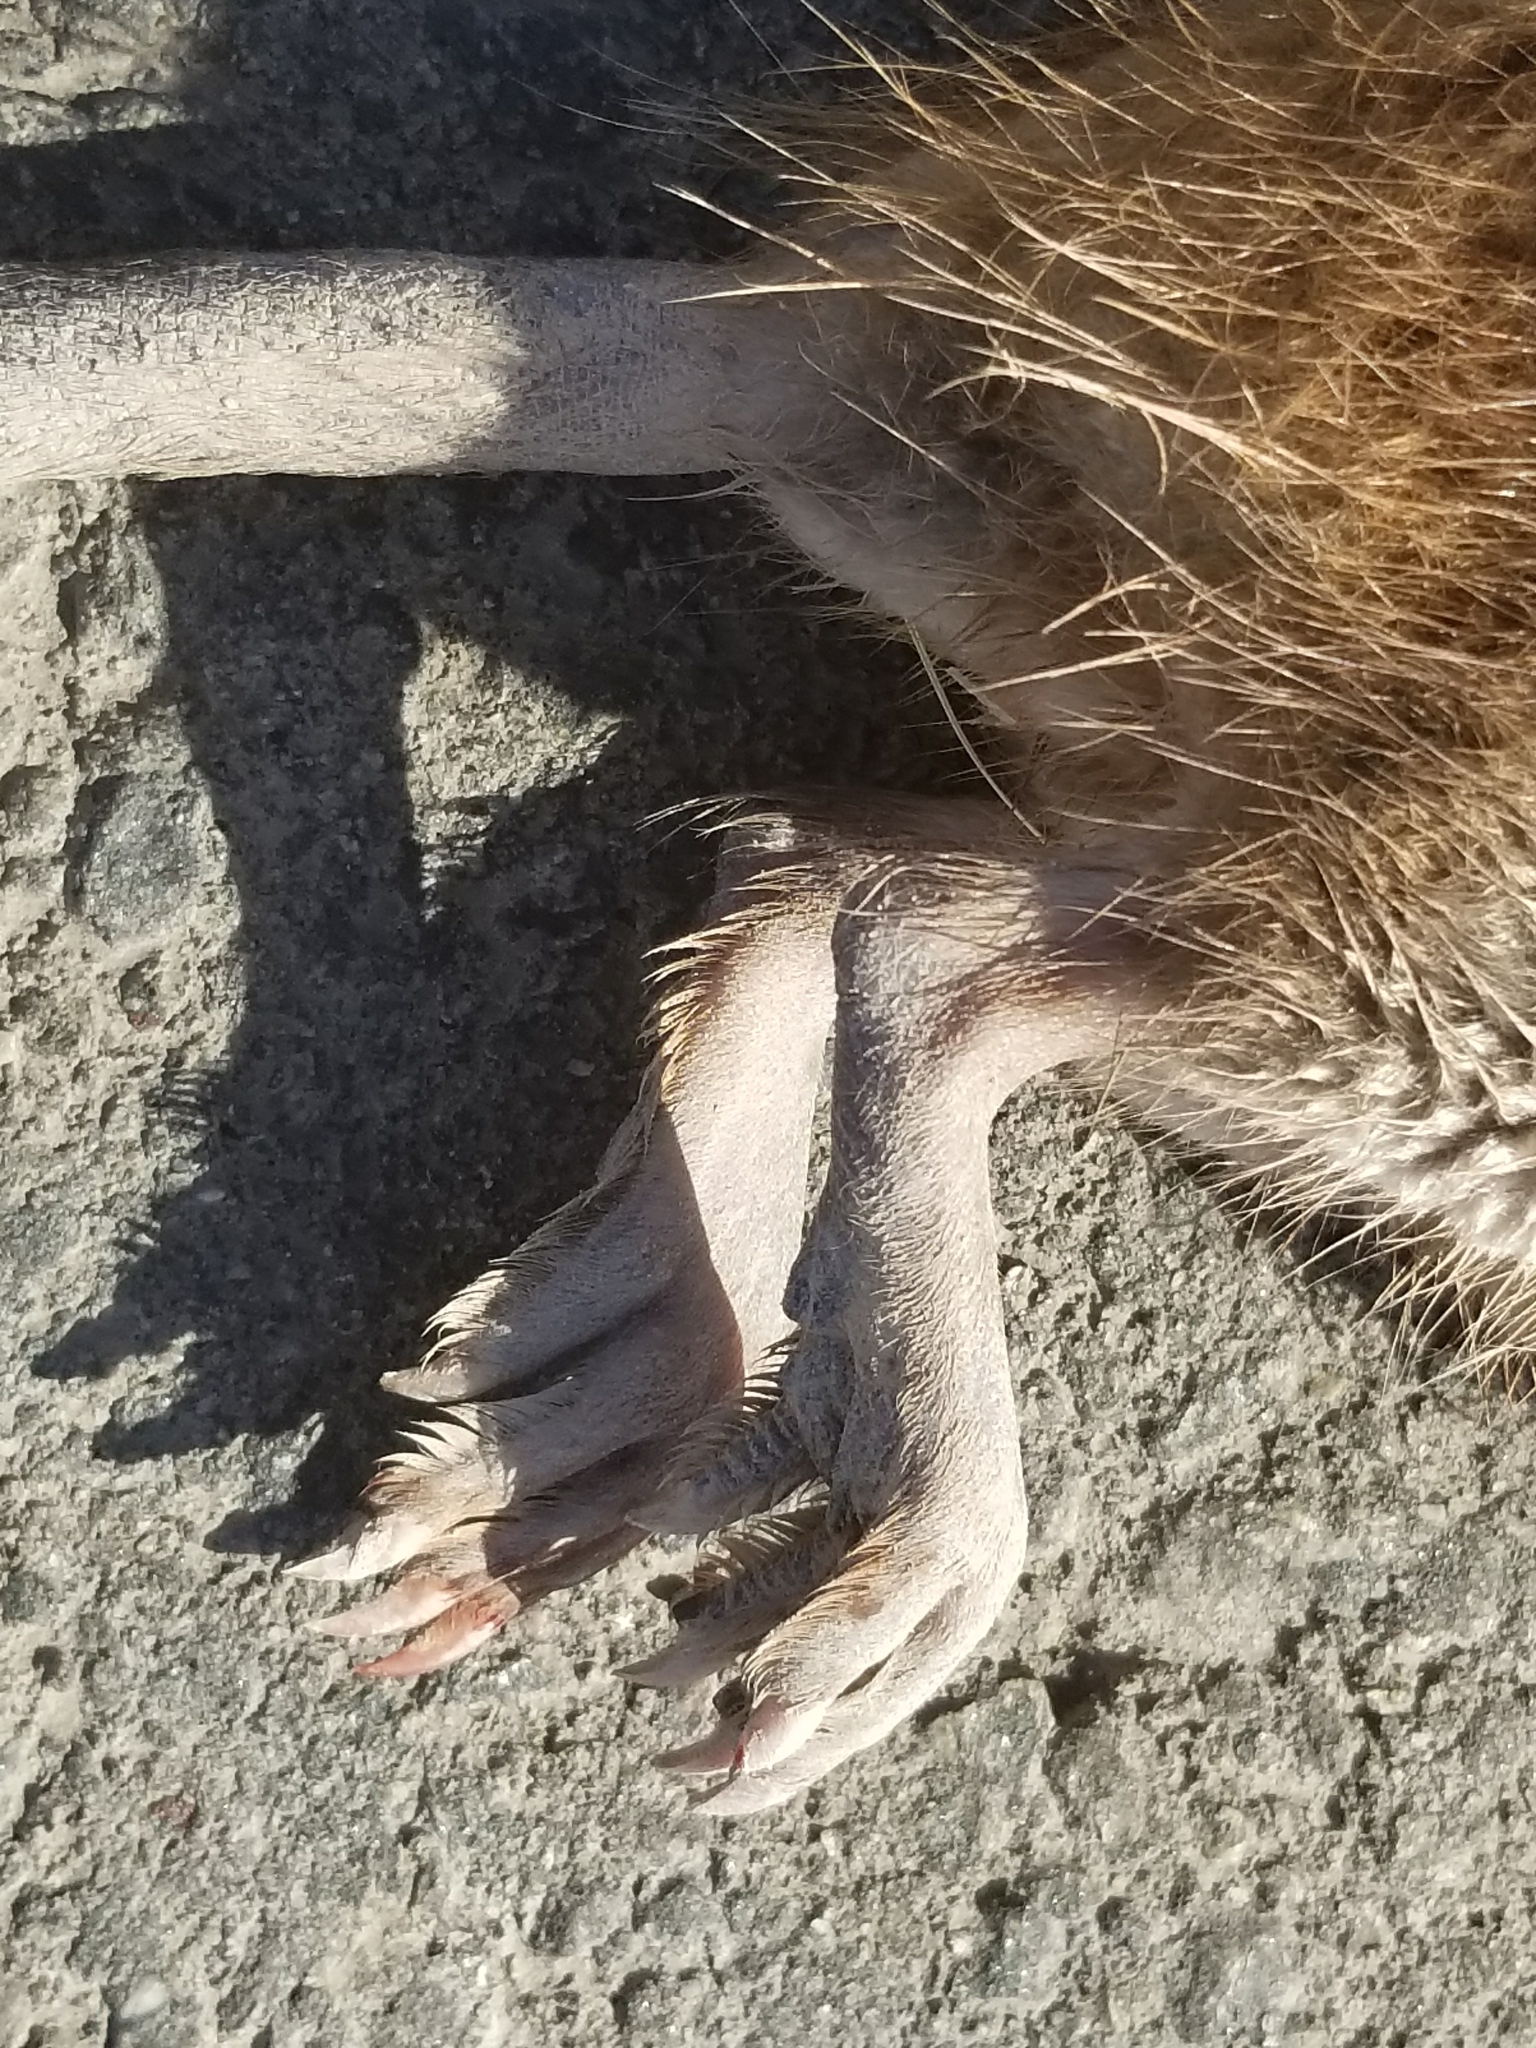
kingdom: Animalia
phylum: Chordata
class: Mammalia
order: Rodentia
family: Cricetidae
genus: Ondatra
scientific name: Ondatra zibethicus
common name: Muskrat
